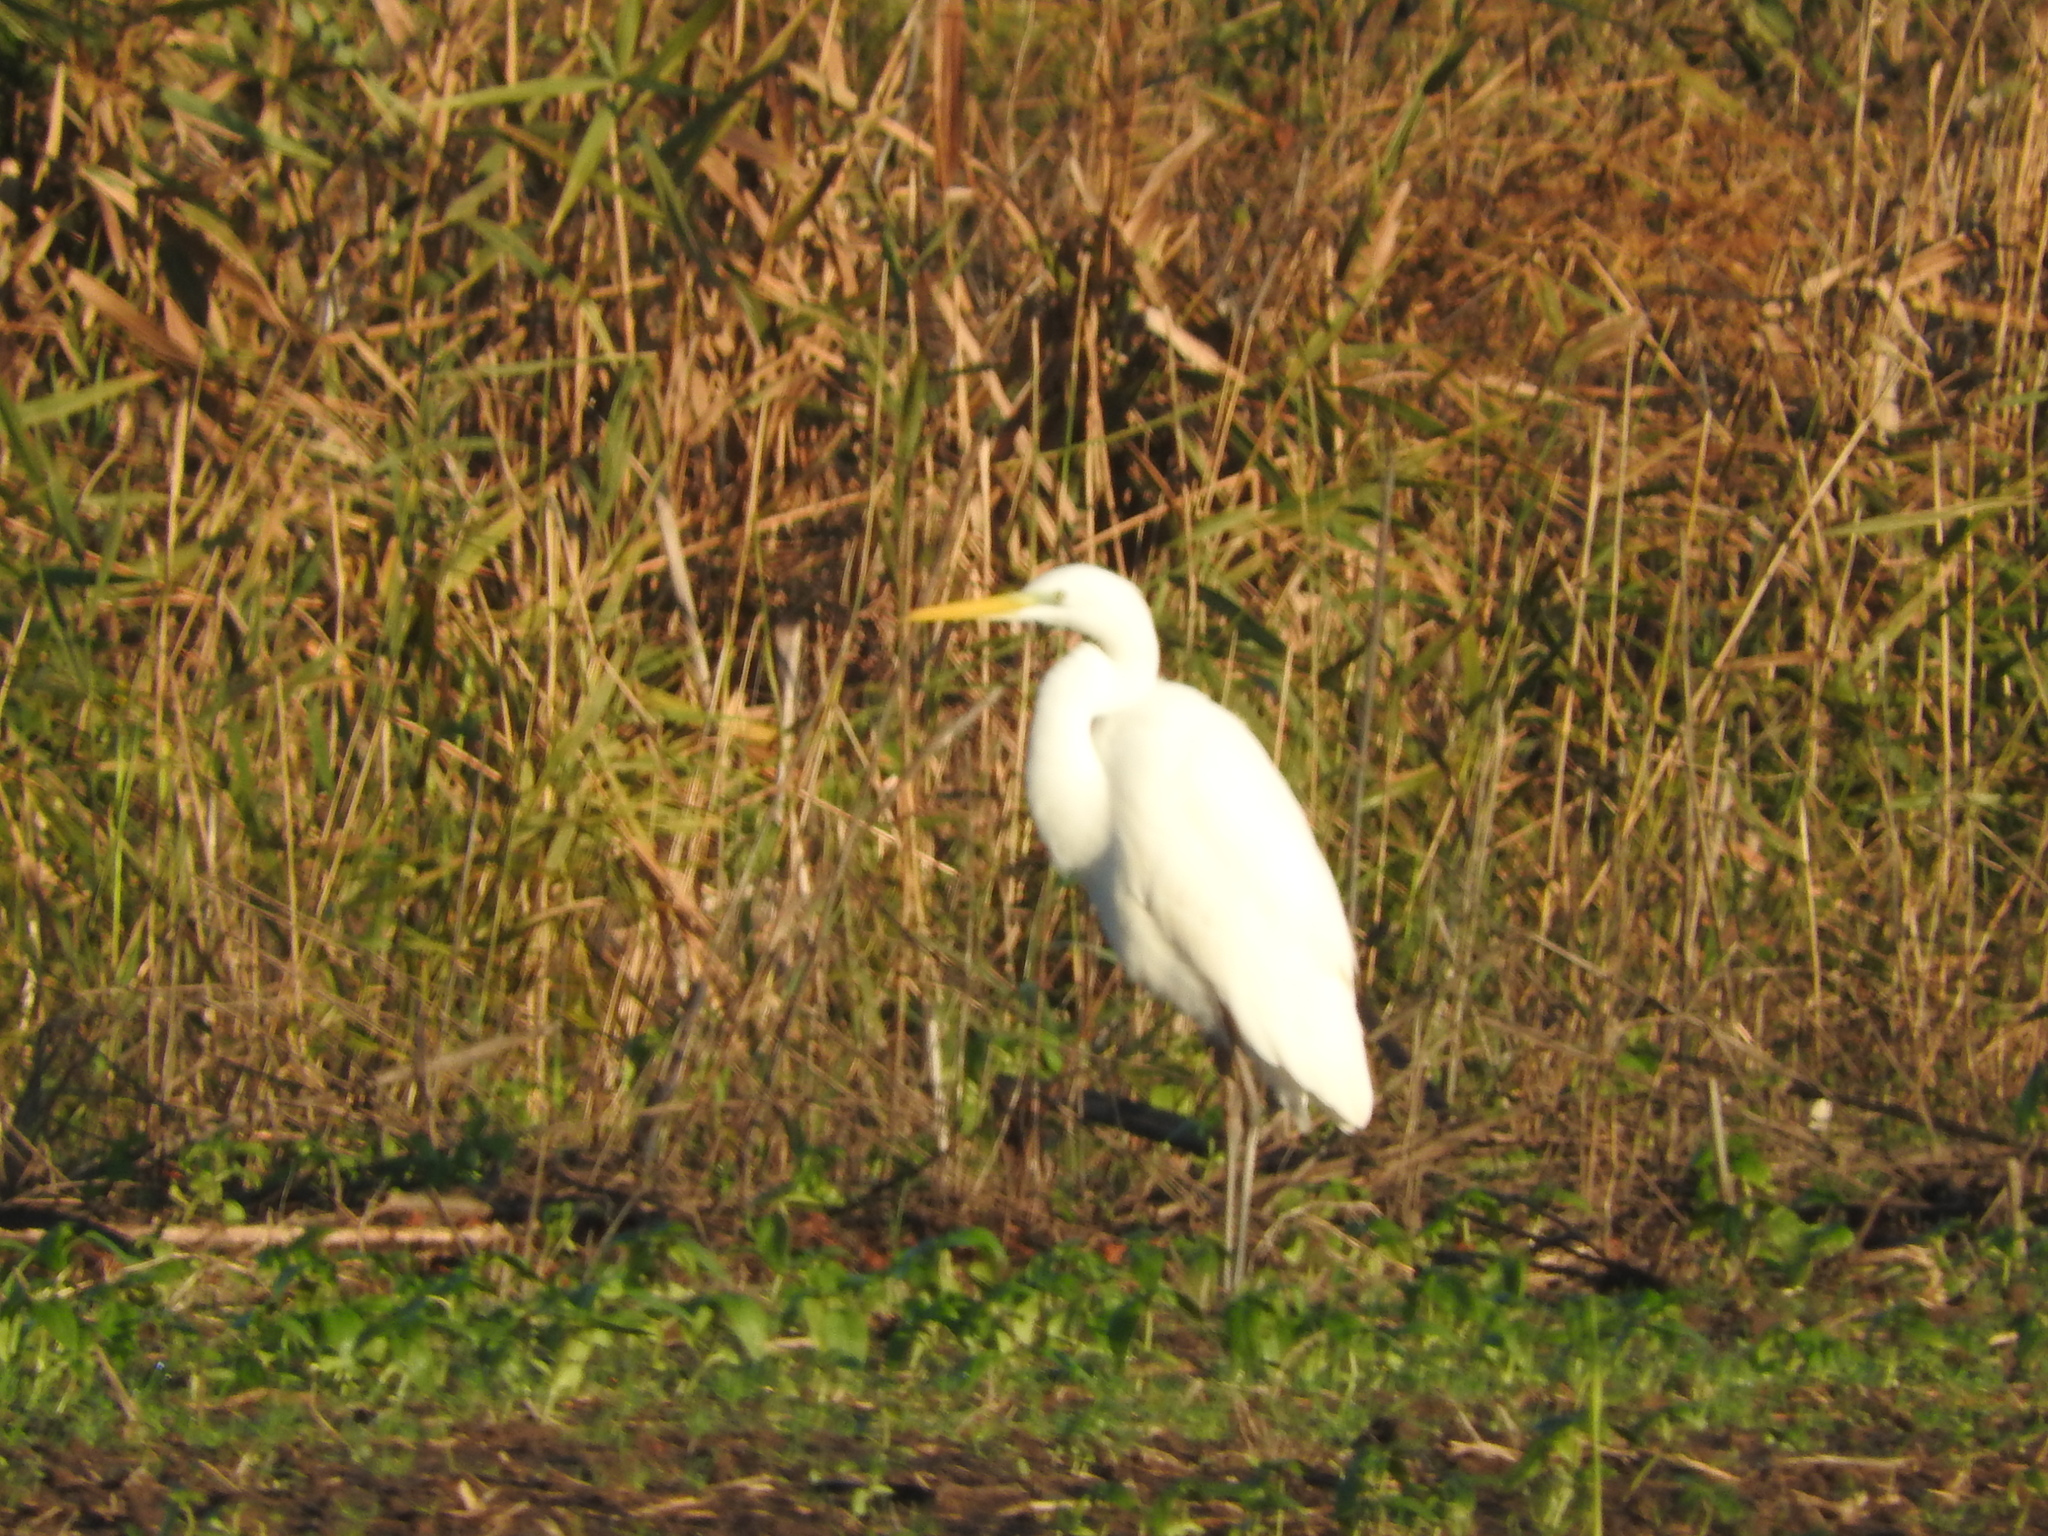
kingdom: Animalia
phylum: Chordata
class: Aves
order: Pelecaniformes
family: Ardeidae
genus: Ardea
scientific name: Ardea alba
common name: Great egret
